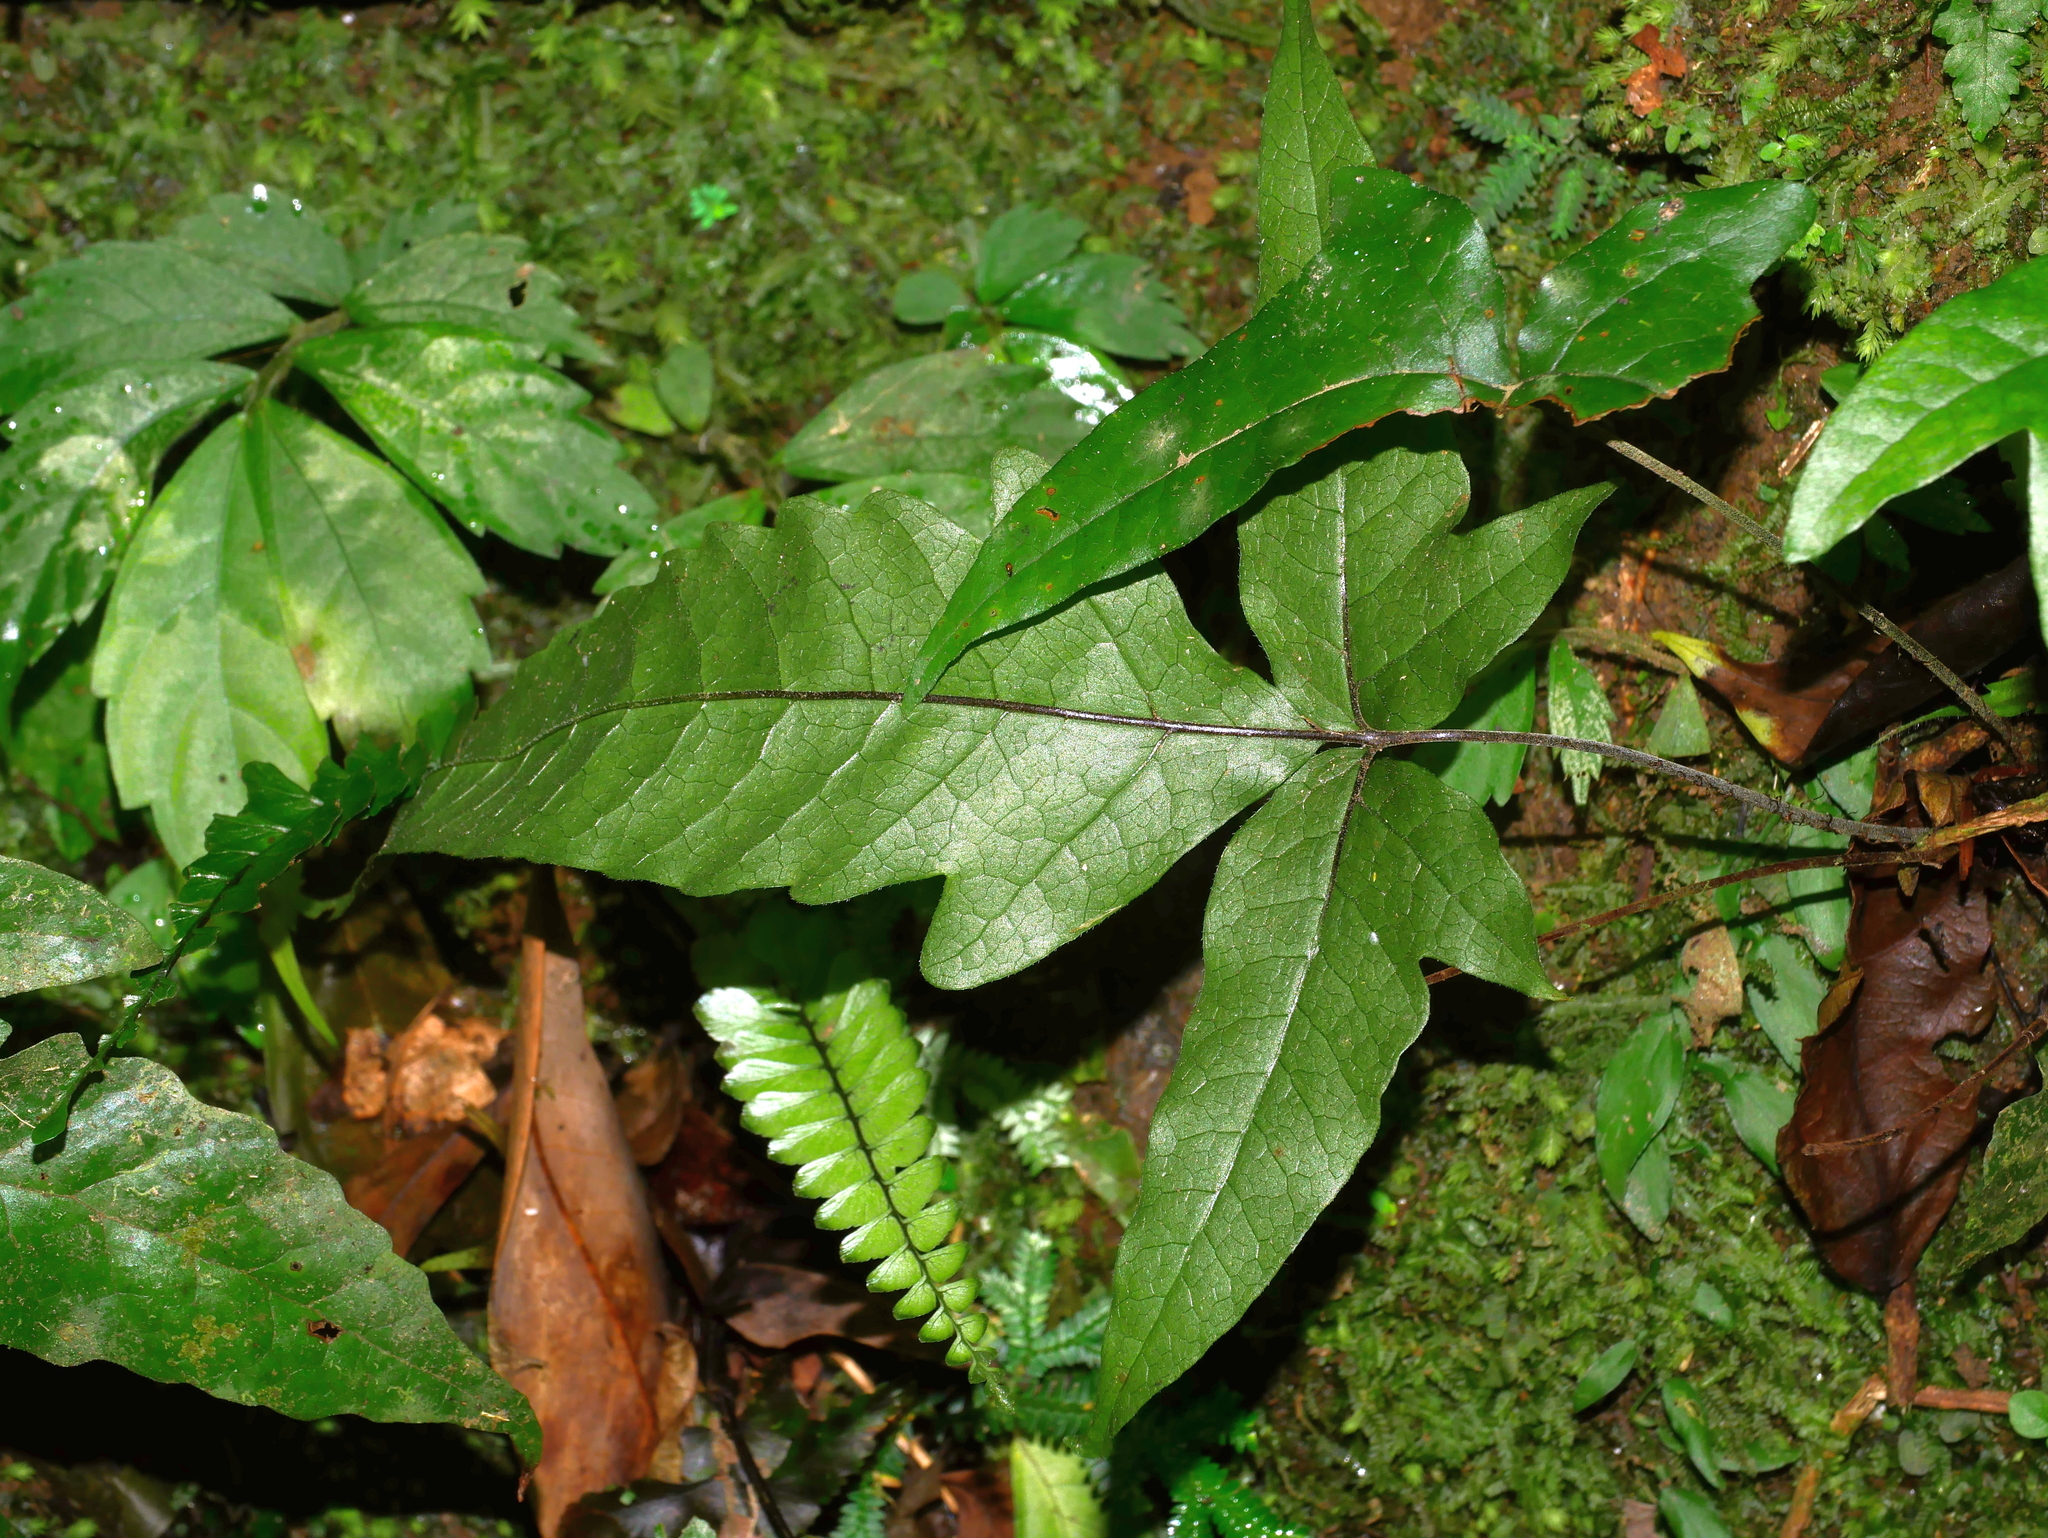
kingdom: Plantae
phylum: Tracheophyta
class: Polypodiopsida
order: Polypodiales
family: Tectariaceae
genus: Tectaria
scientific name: Tectaria simonsii
